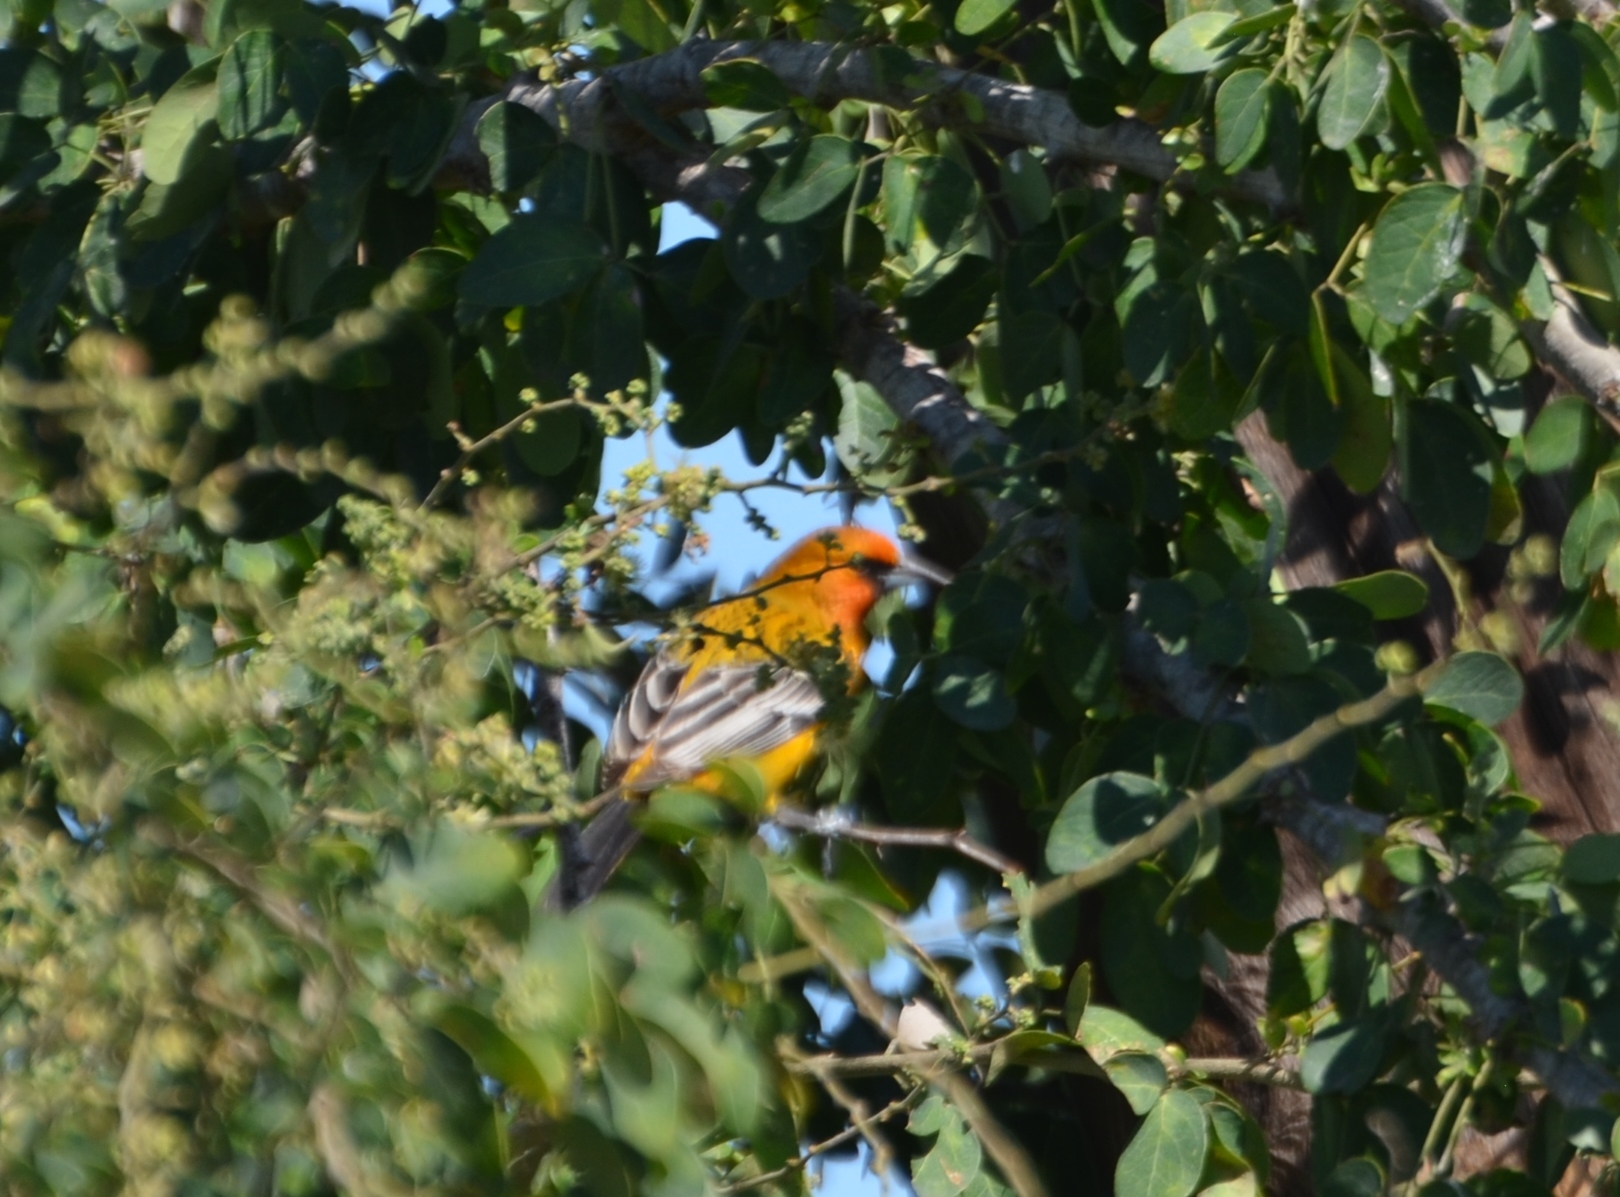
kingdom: Animalia
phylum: Chordata
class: Aves
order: Passeriformes
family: Icteridae
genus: Icterus
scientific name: Icterus pustulatus
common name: Streak-backed oriole
